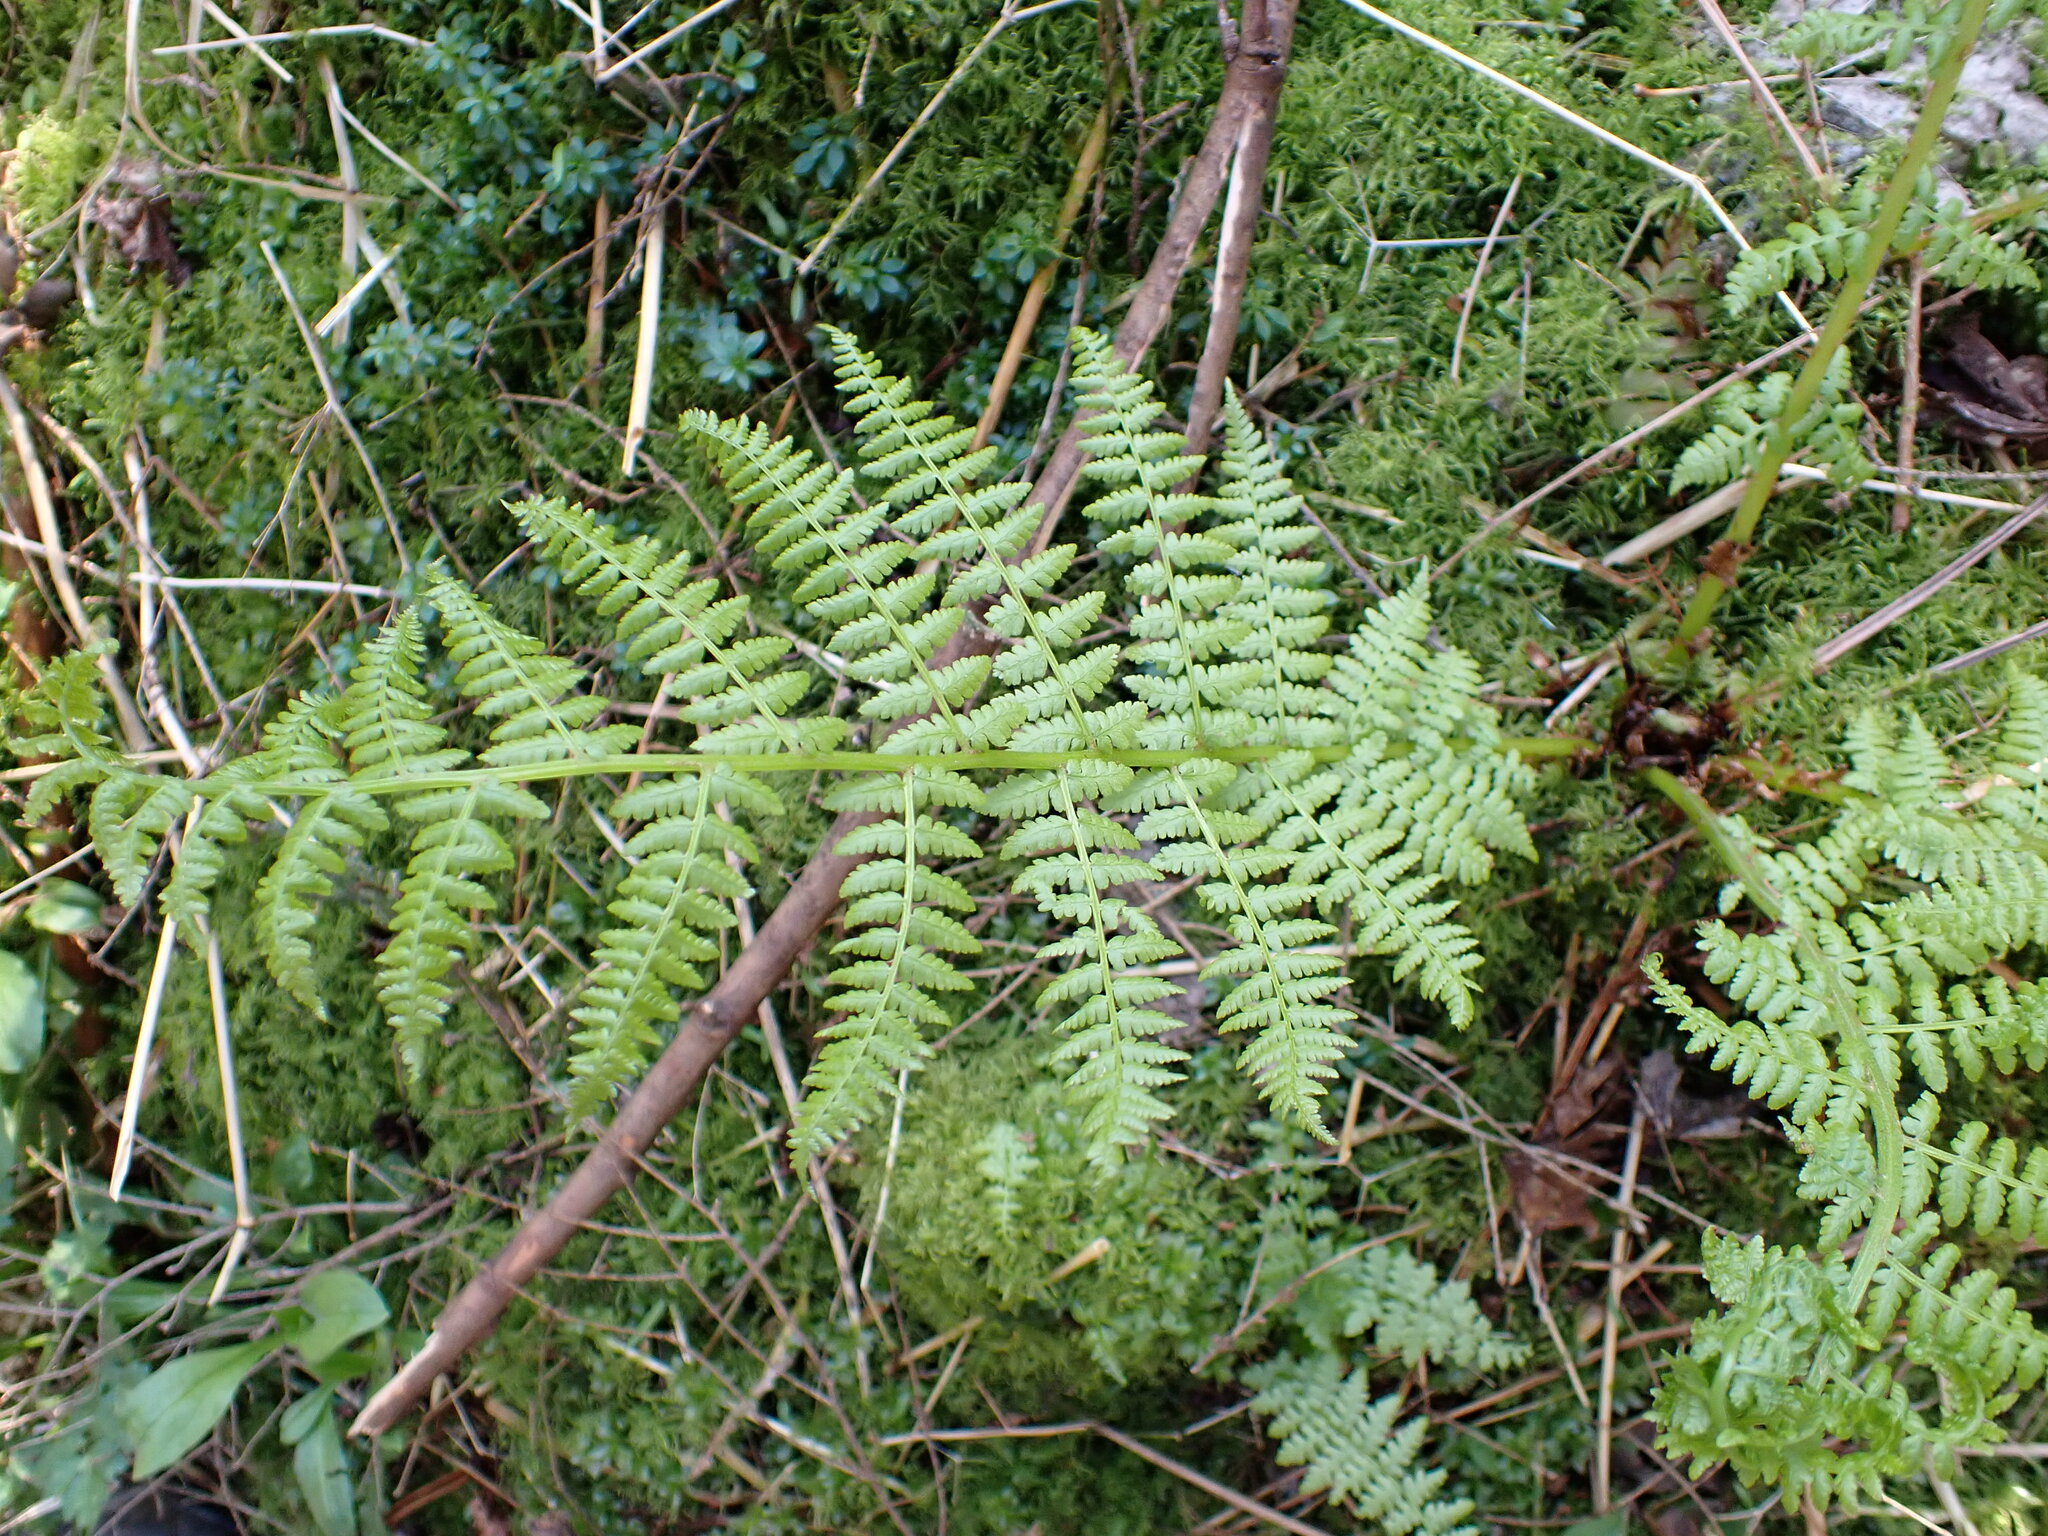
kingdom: Plantae
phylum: Tracheophyta
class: Polypodiopsida
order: Polypodiales
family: Athyriaceae
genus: Athyrium
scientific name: Athyrium filix-femina
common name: Lady fern
